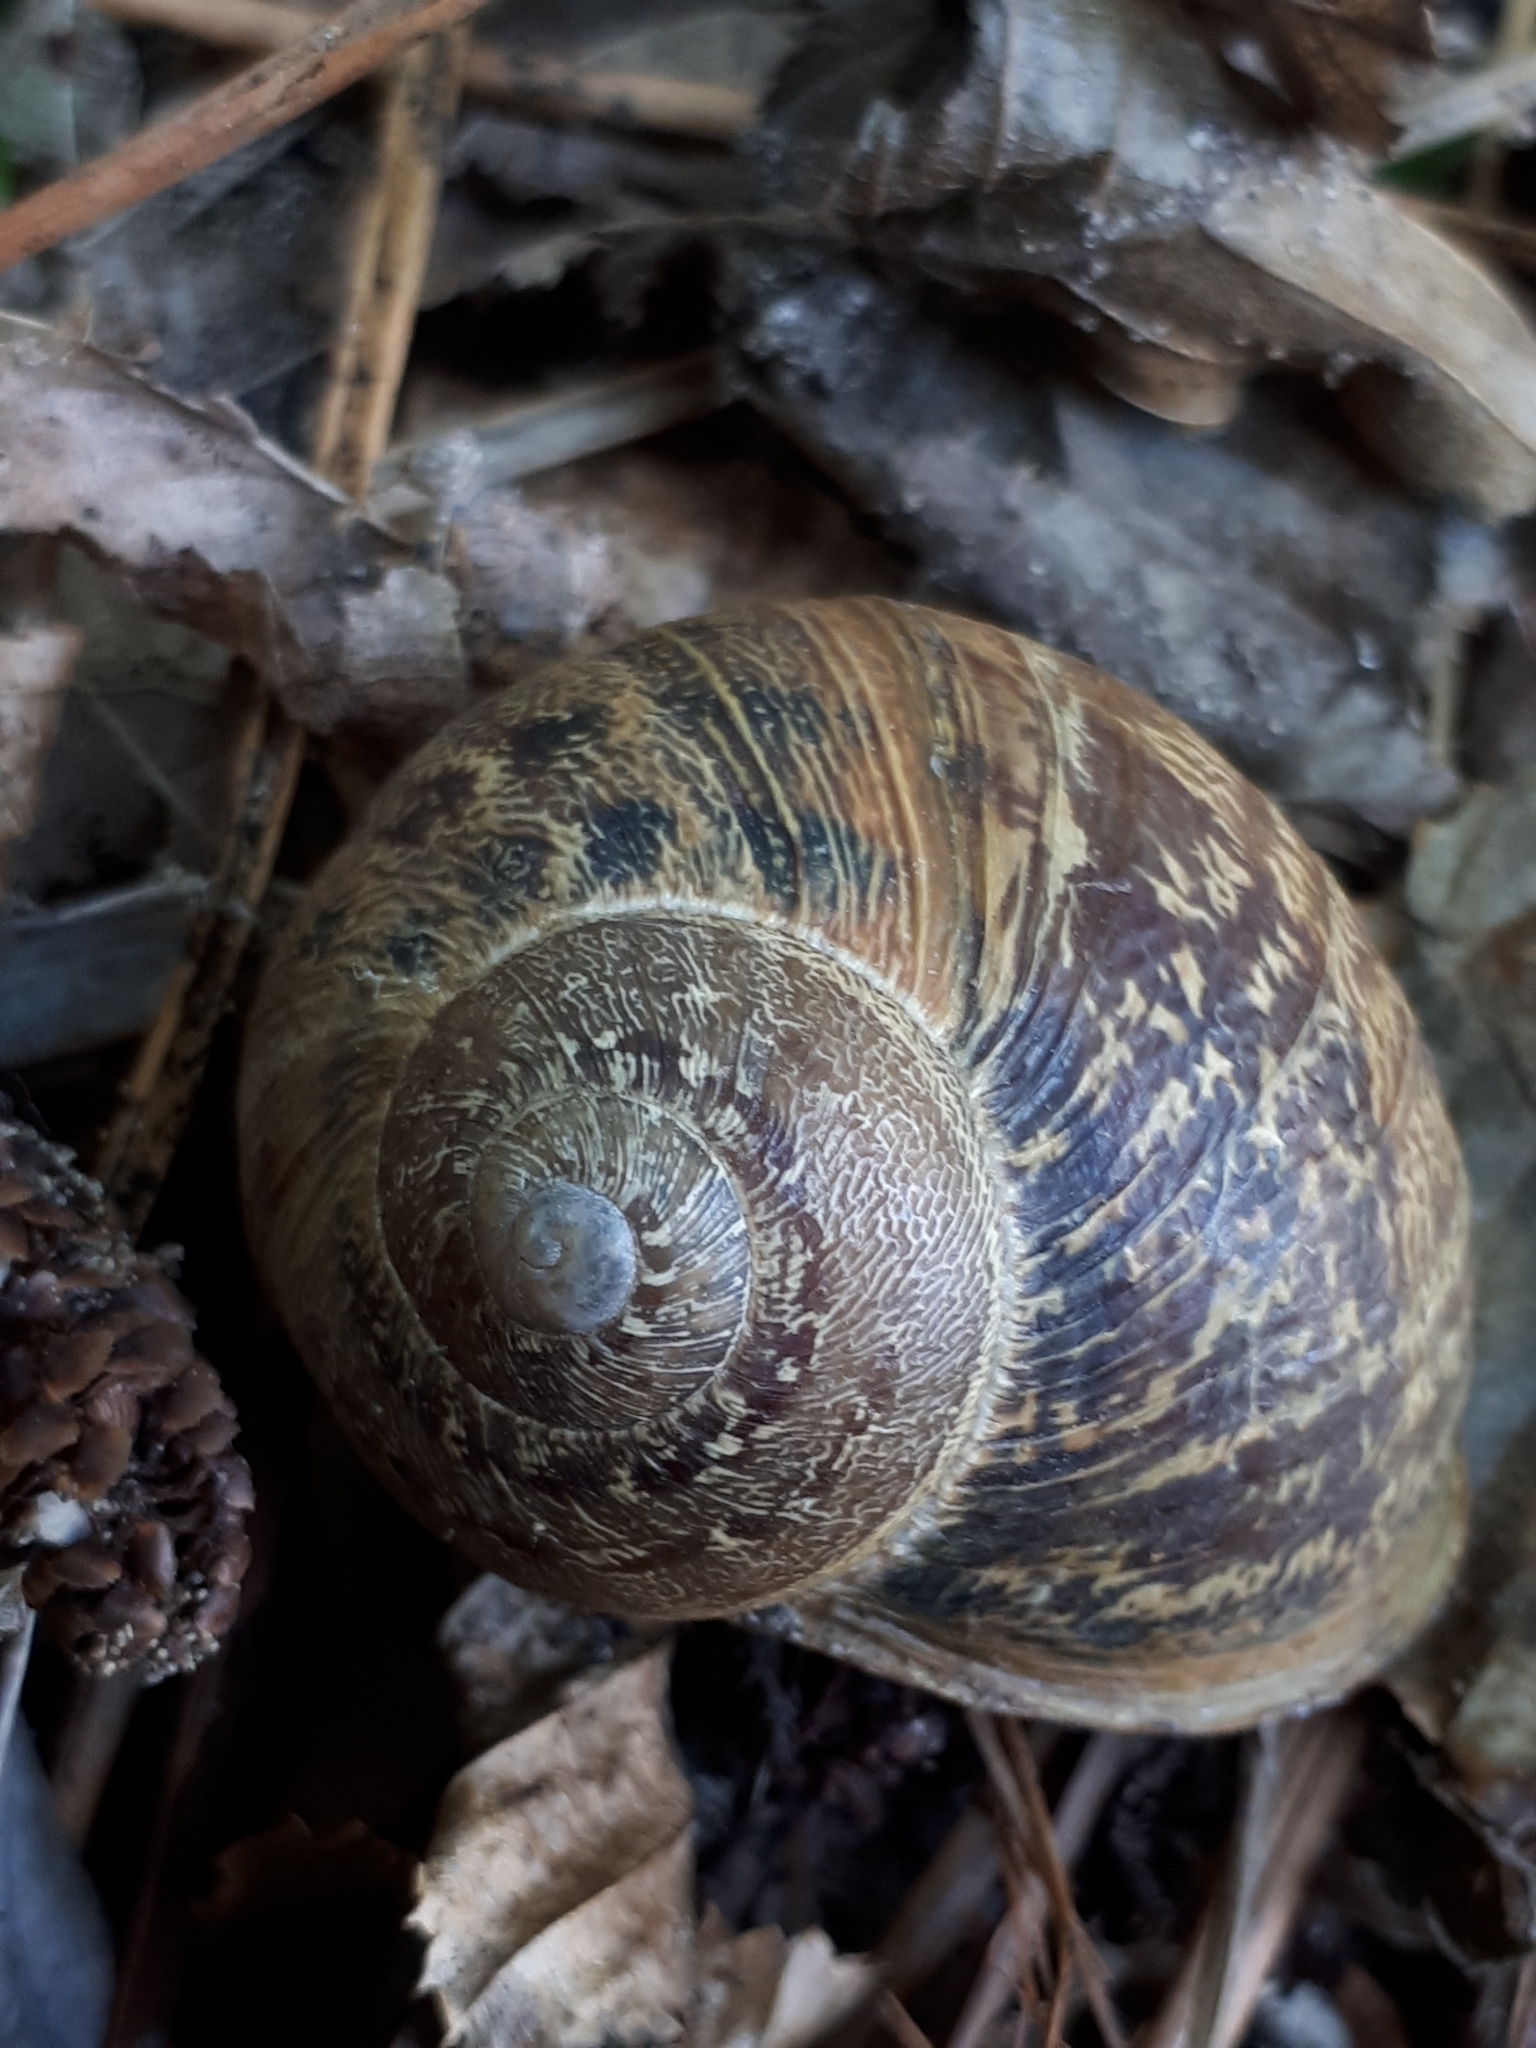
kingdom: Animalia
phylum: Mollusca
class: Gastropoda
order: Stylommatophora
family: Helicidae
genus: Cornu
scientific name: Cornu aspersum
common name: Brown garden snail
